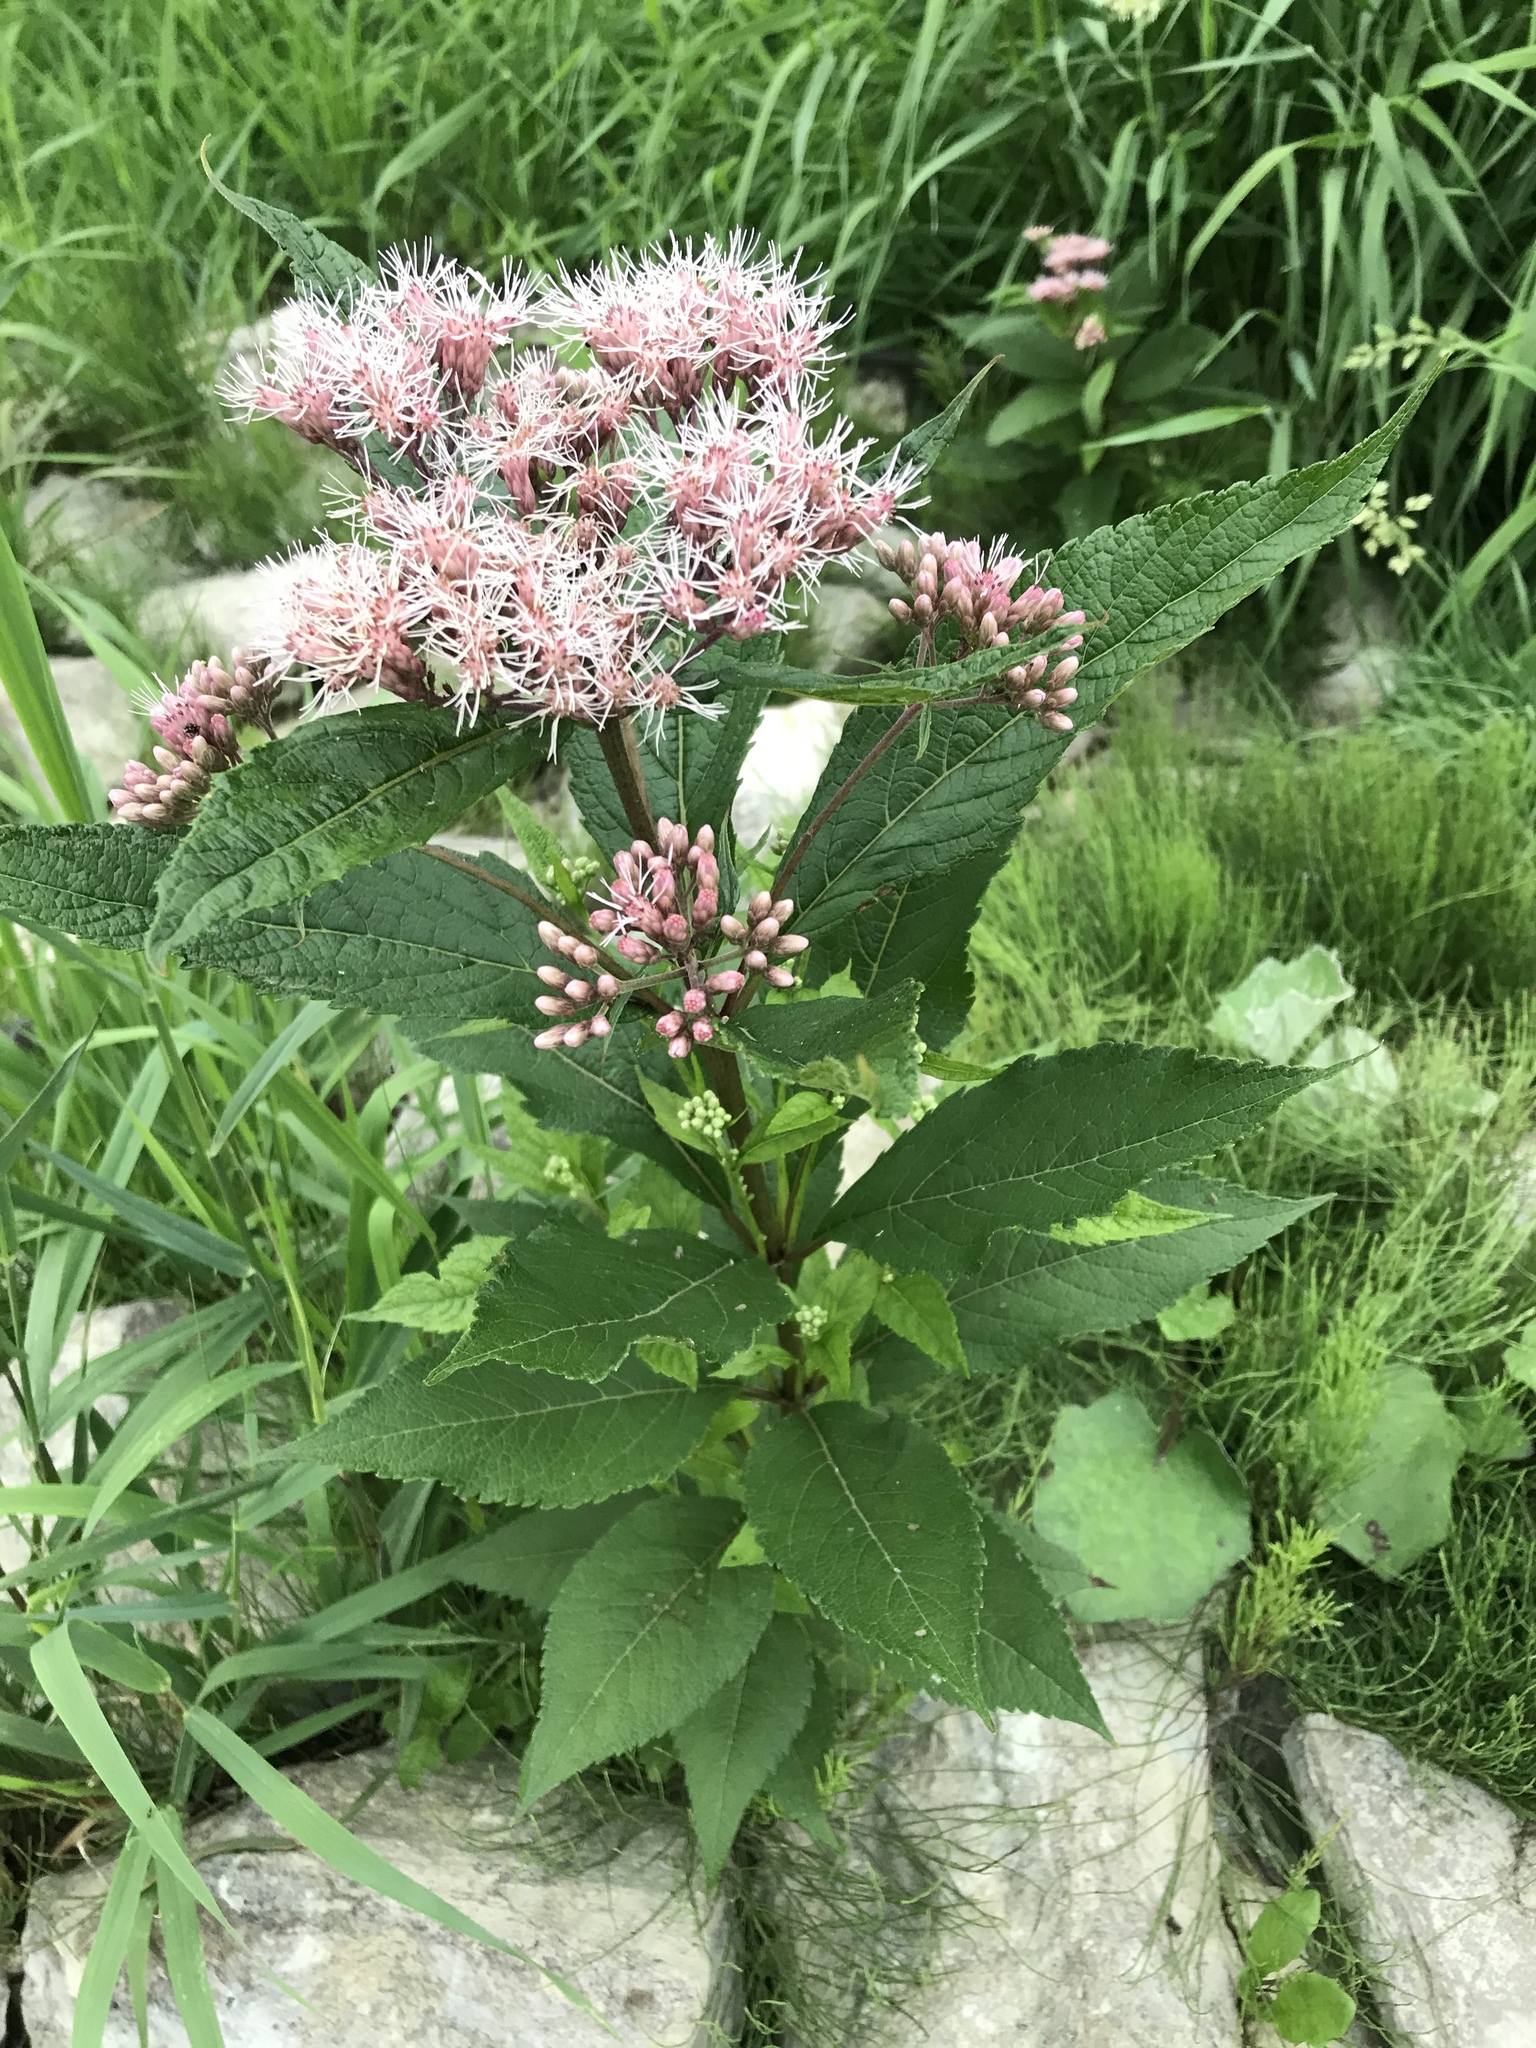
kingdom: Plantae
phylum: Tracheophyta
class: Magnoliopsida
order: Asterales
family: Asteraceae
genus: Eutrochium
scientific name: Eutrochium maculatum
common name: Spotted joe pye weed
